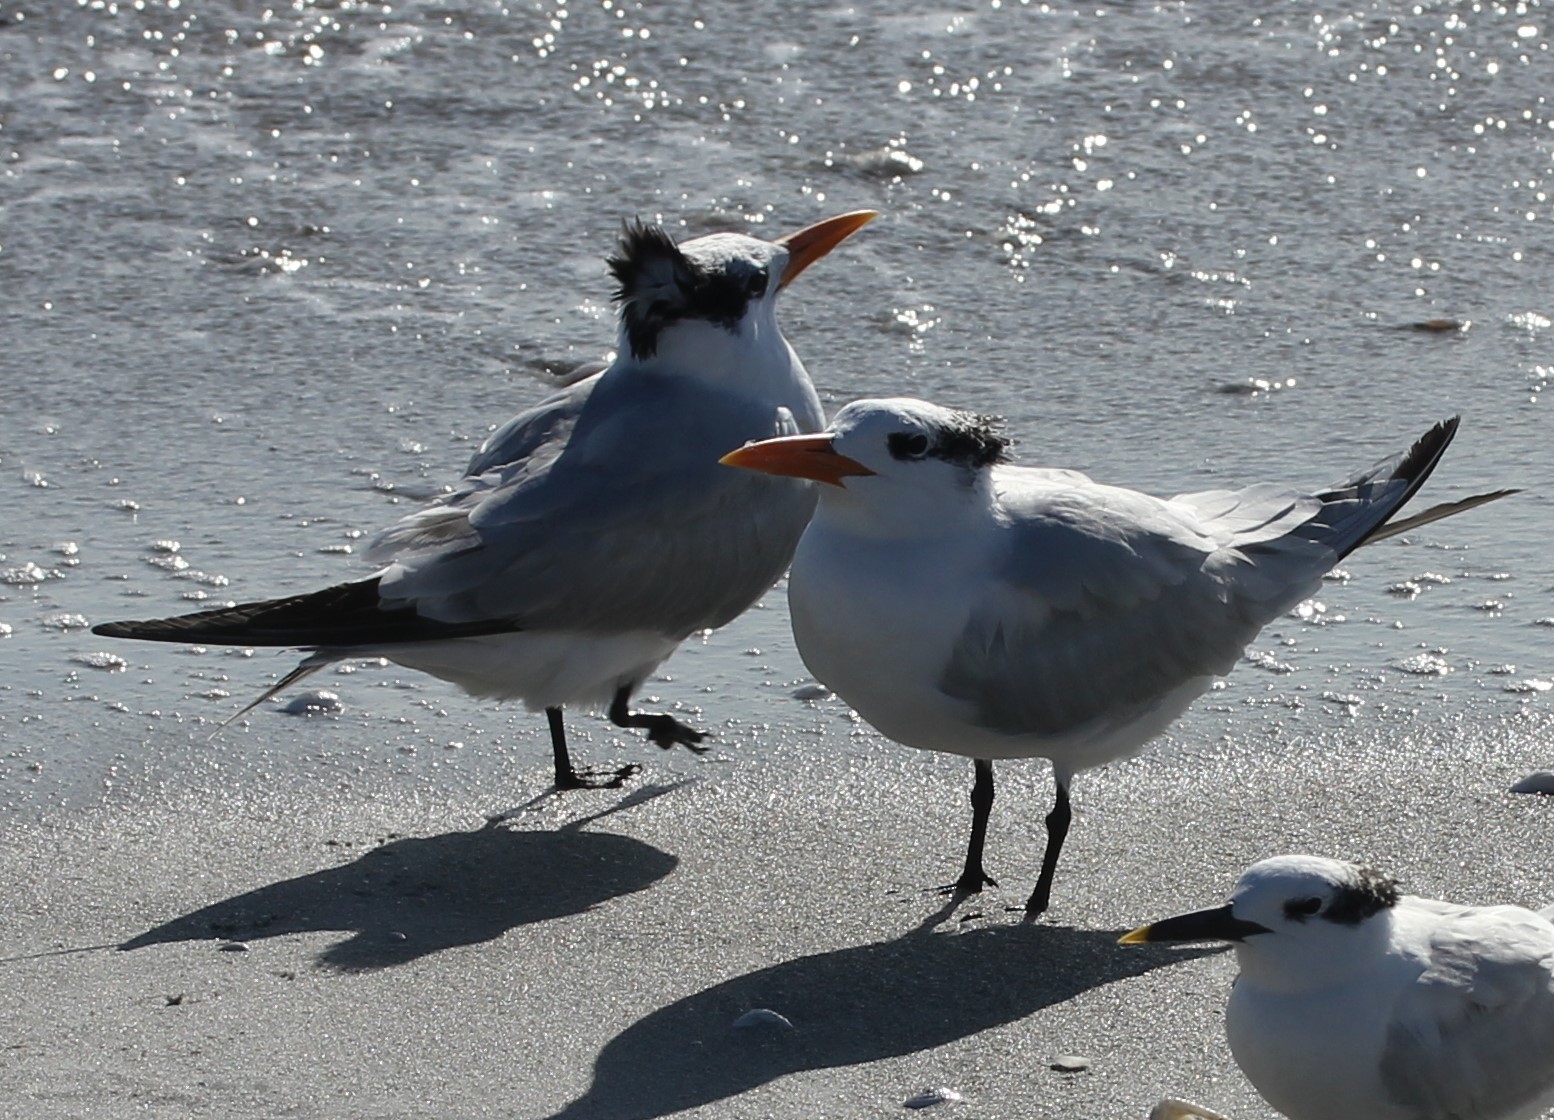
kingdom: Animalia
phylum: Chordata
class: Aves
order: Charadriiformes
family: Laridae
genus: Thalasseus
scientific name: Thalasseus maximus
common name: Royal tern
